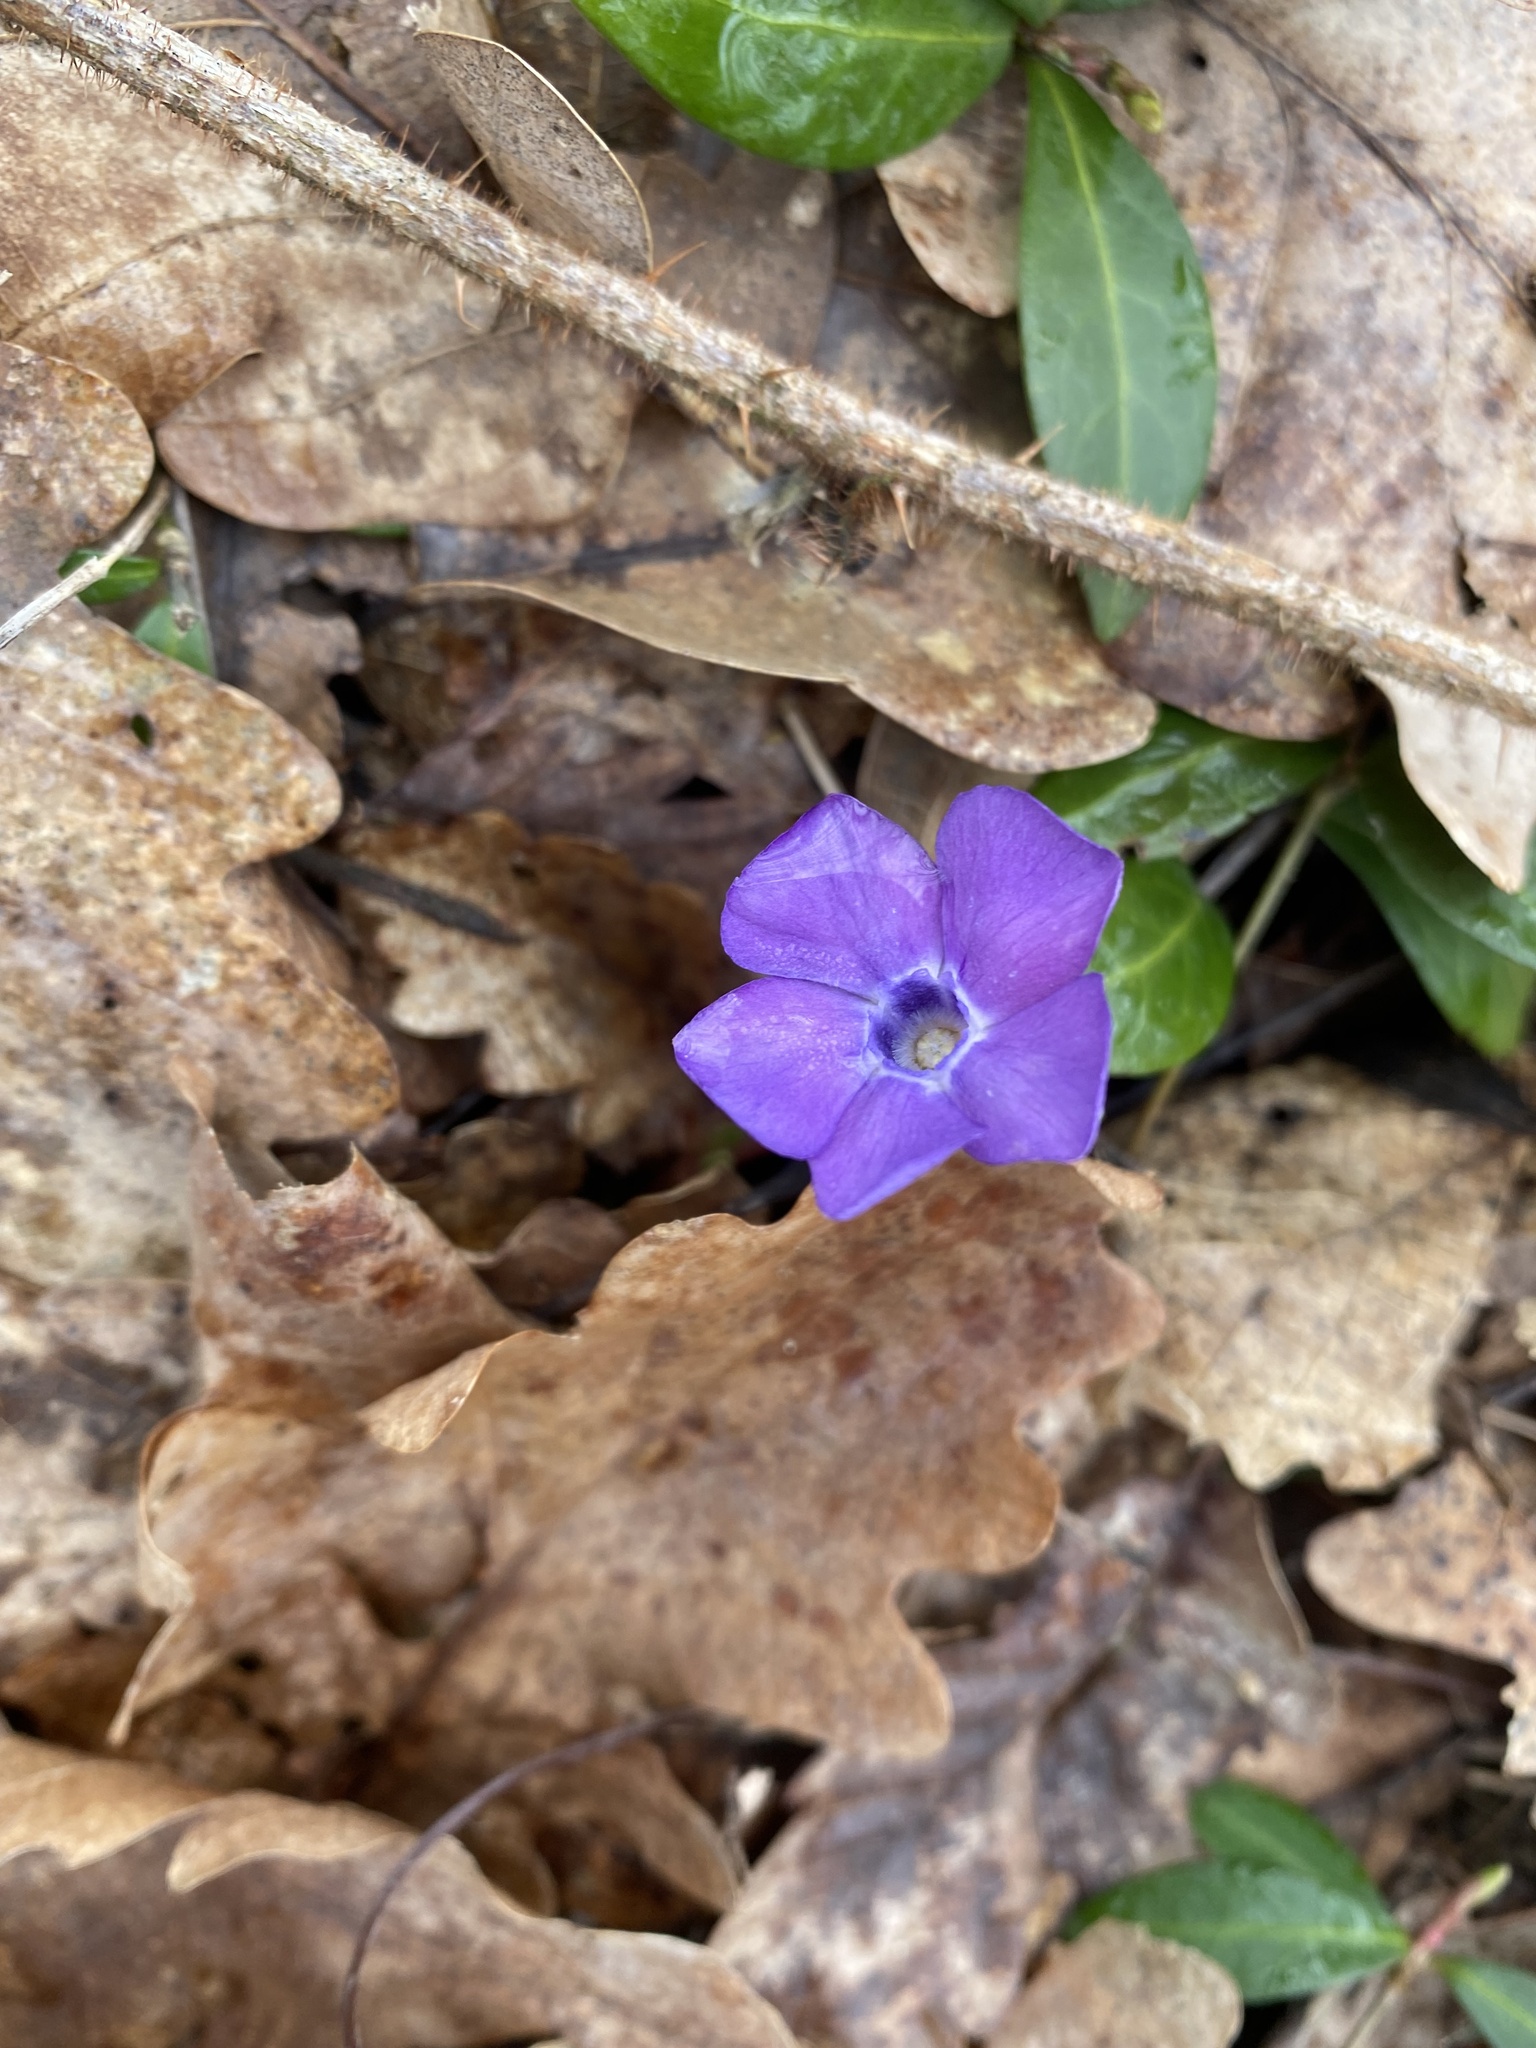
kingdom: Plantae
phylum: Tracheophyta
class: Magnoliopsida
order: Gentianales
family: Apocynaceae
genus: Vinca
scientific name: Vinca minor
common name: Lesser periwinkle
